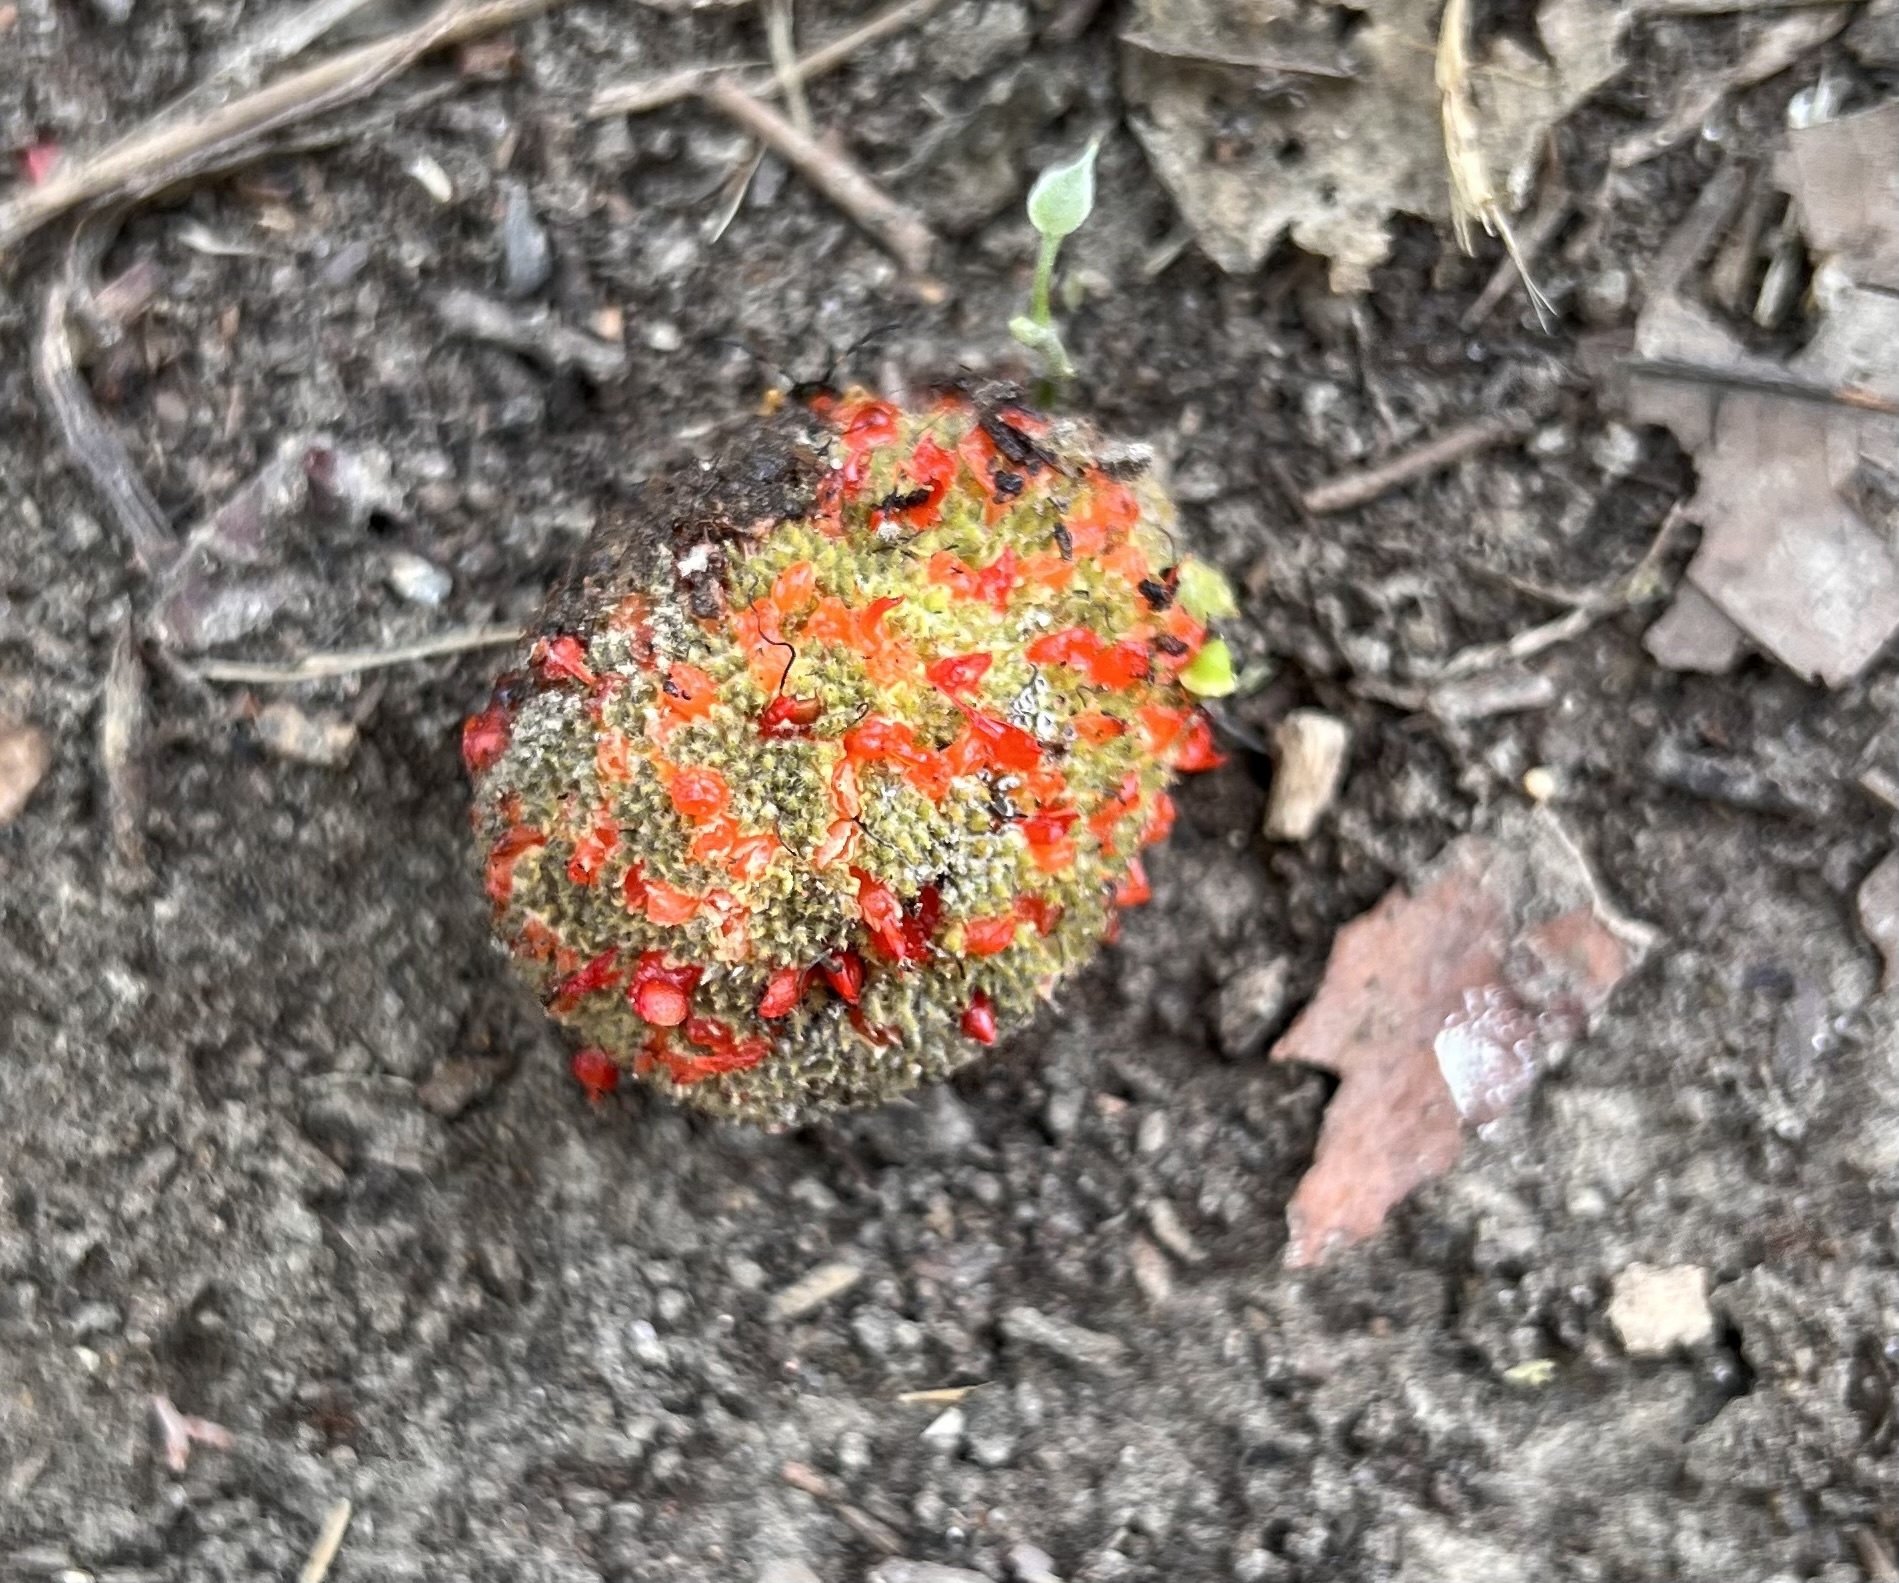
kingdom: Plantae
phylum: Tracheophyta
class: Magnoliopsida
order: Rosales
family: Moraceae
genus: Broussonetia
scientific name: Broussonetia papyrifera
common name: Paper mulberry
